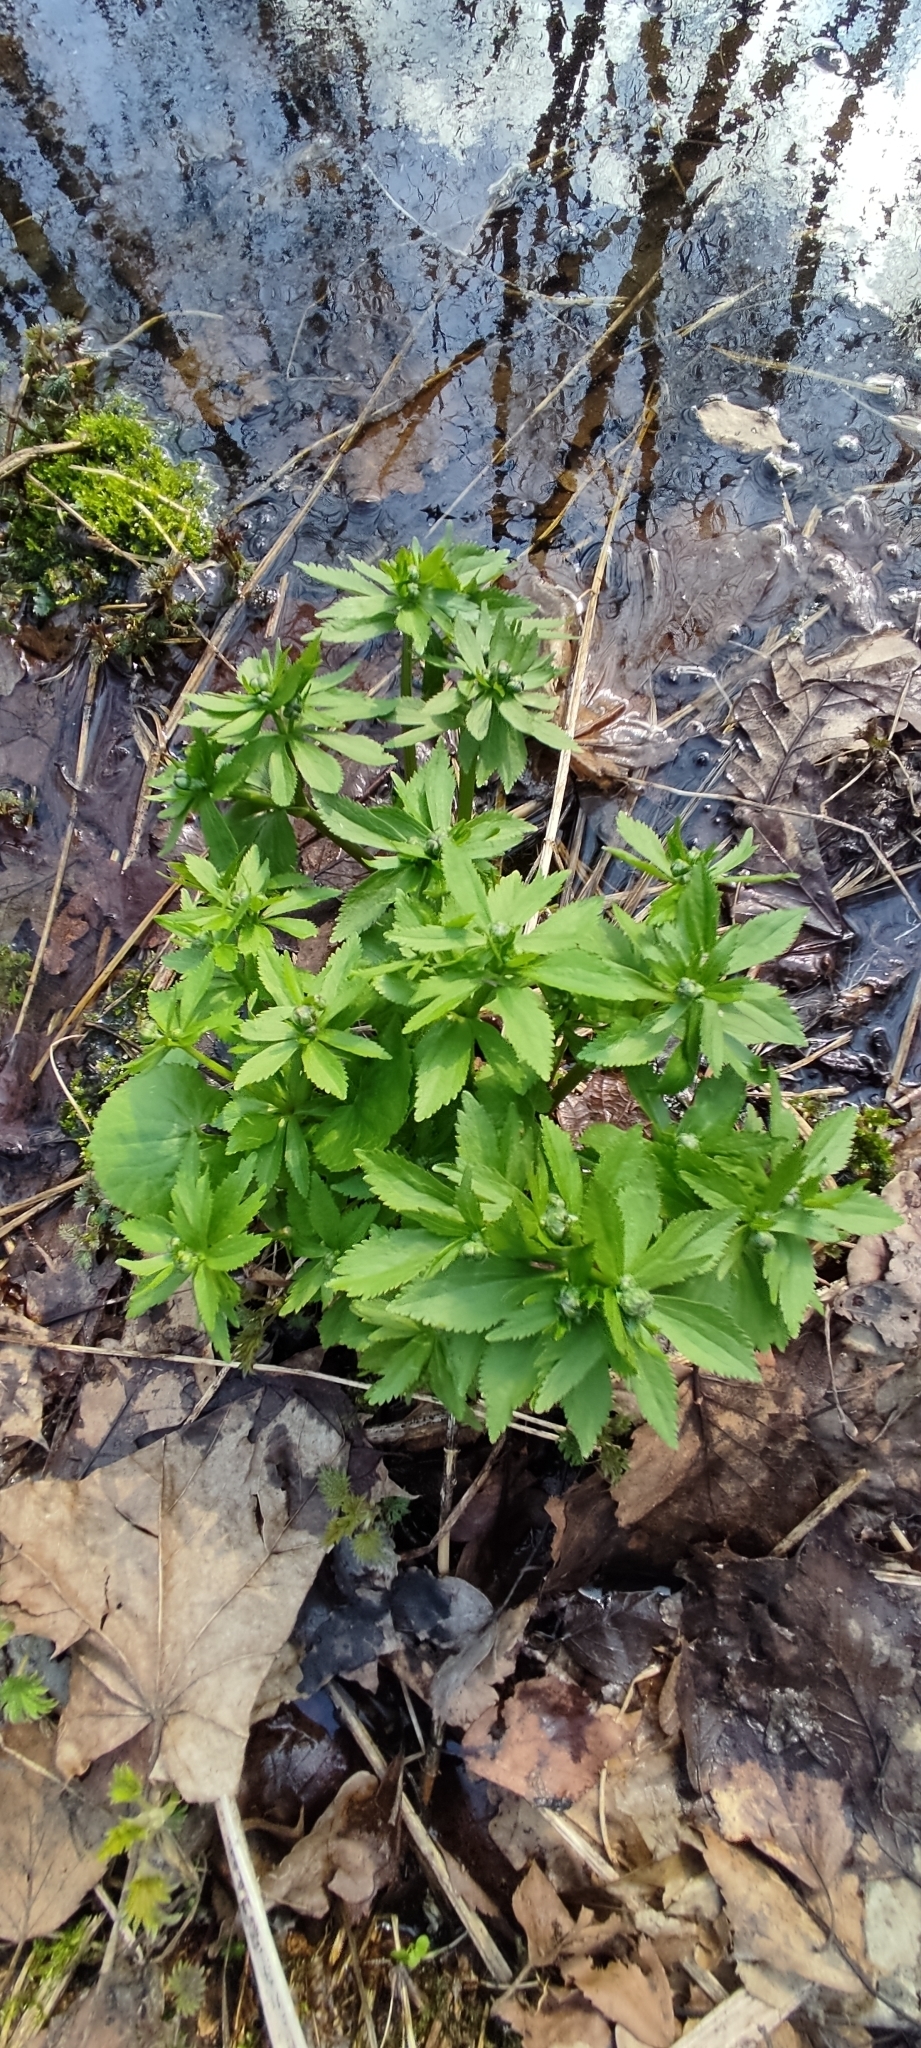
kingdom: Plantae
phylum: Tracheophyta
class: Magnoliopsida
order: Ranunculales
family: Ranunculaceae
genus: Ranunculus
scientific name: Ranunculus cassubicus
